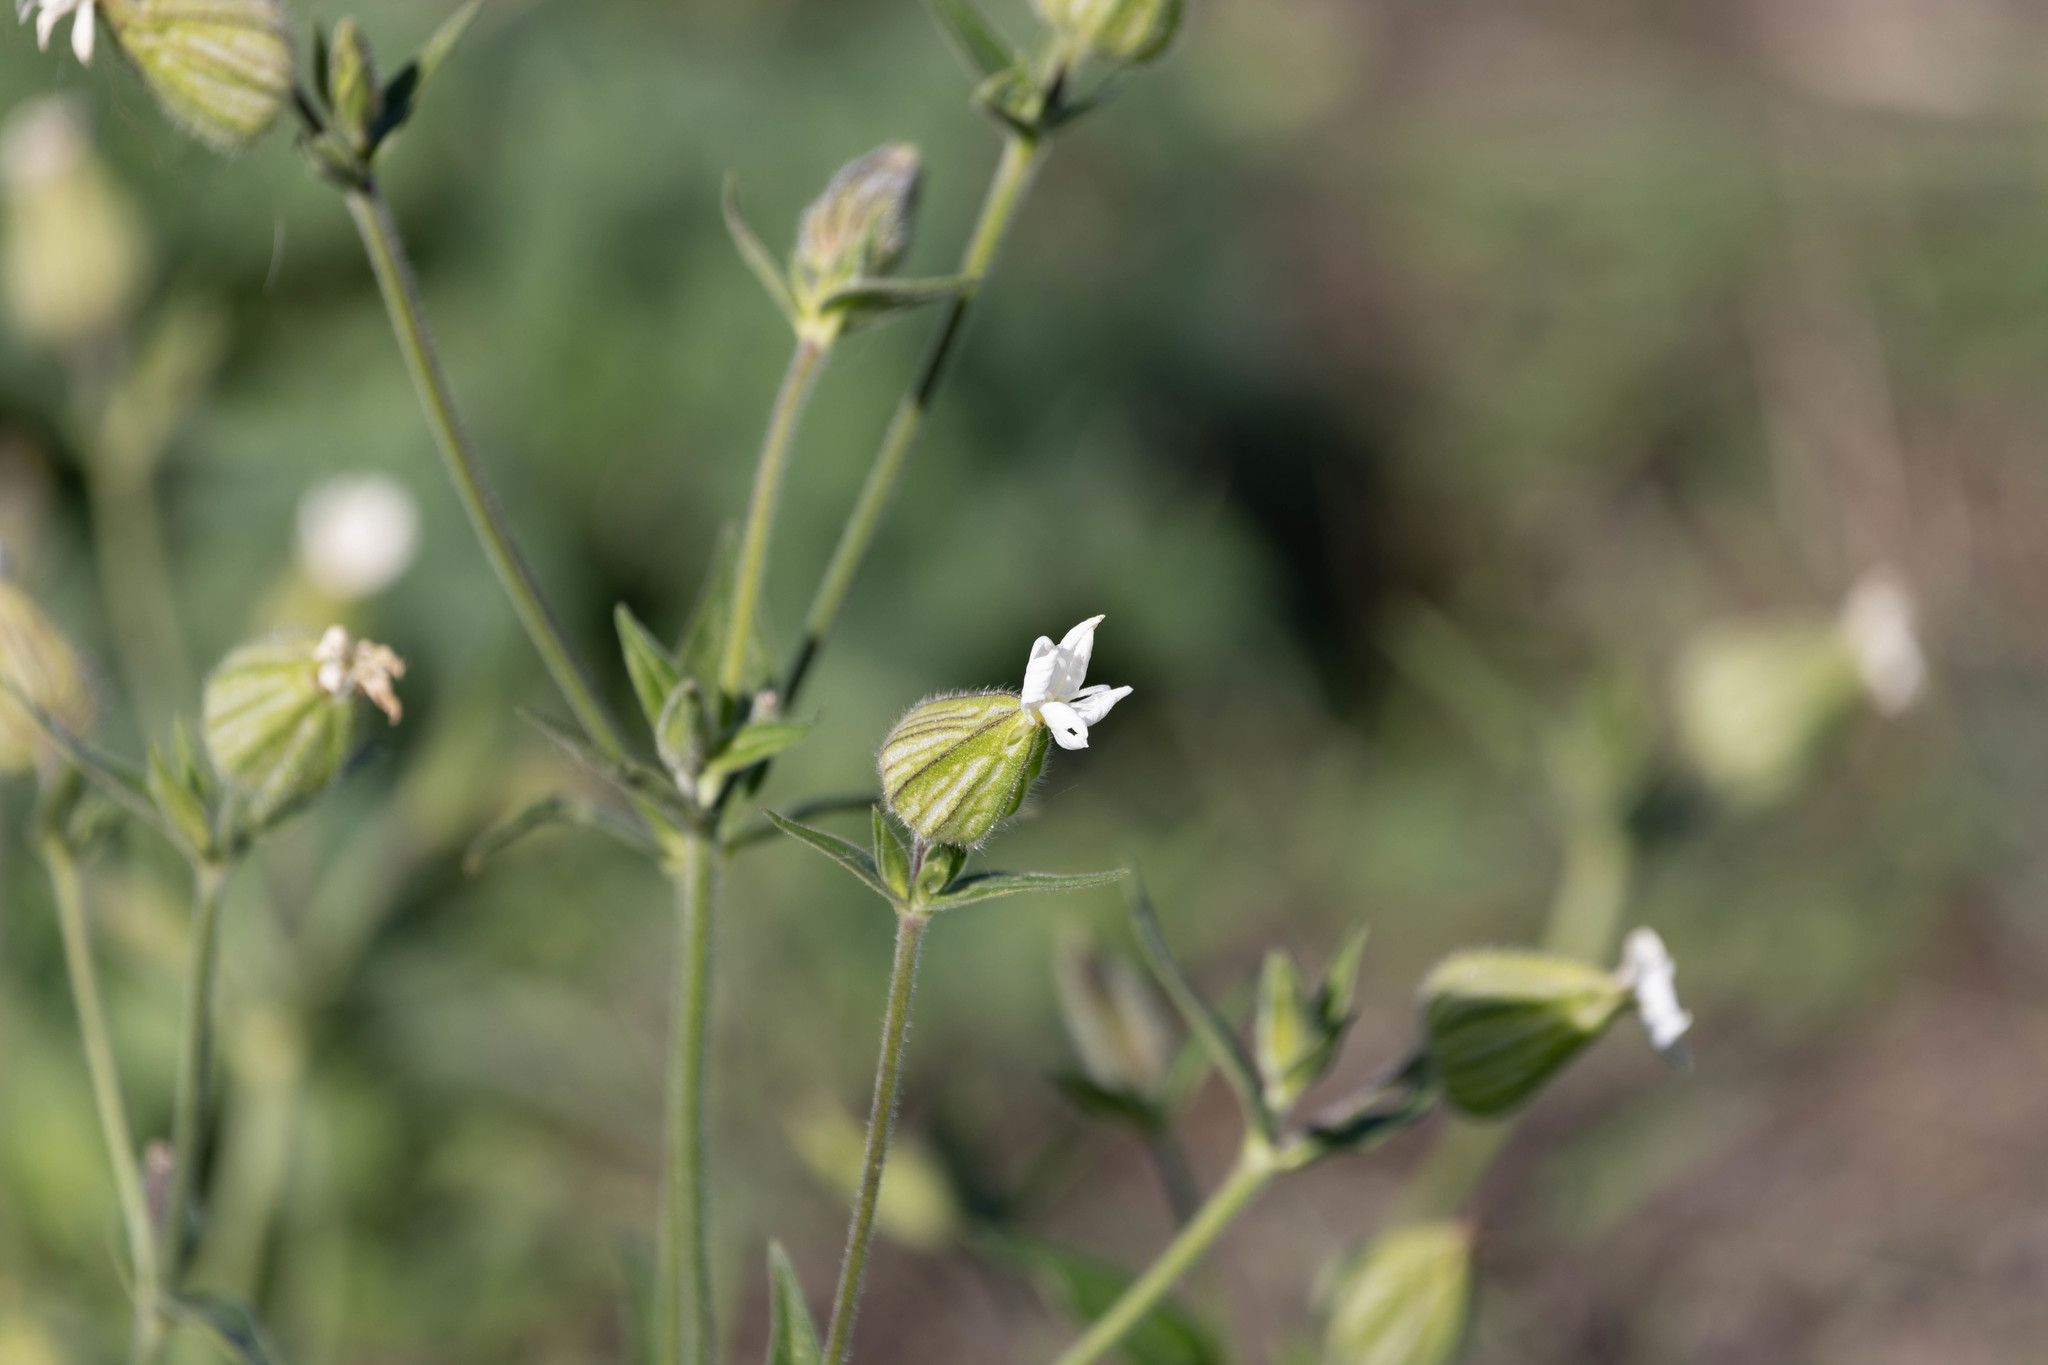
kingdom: Plantae
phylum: Tracheophyta
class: Magnoliopsida
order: Caryophyllales
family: Caryophyllaceae
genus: Silene
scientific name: Silene latifolia
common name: White campion
